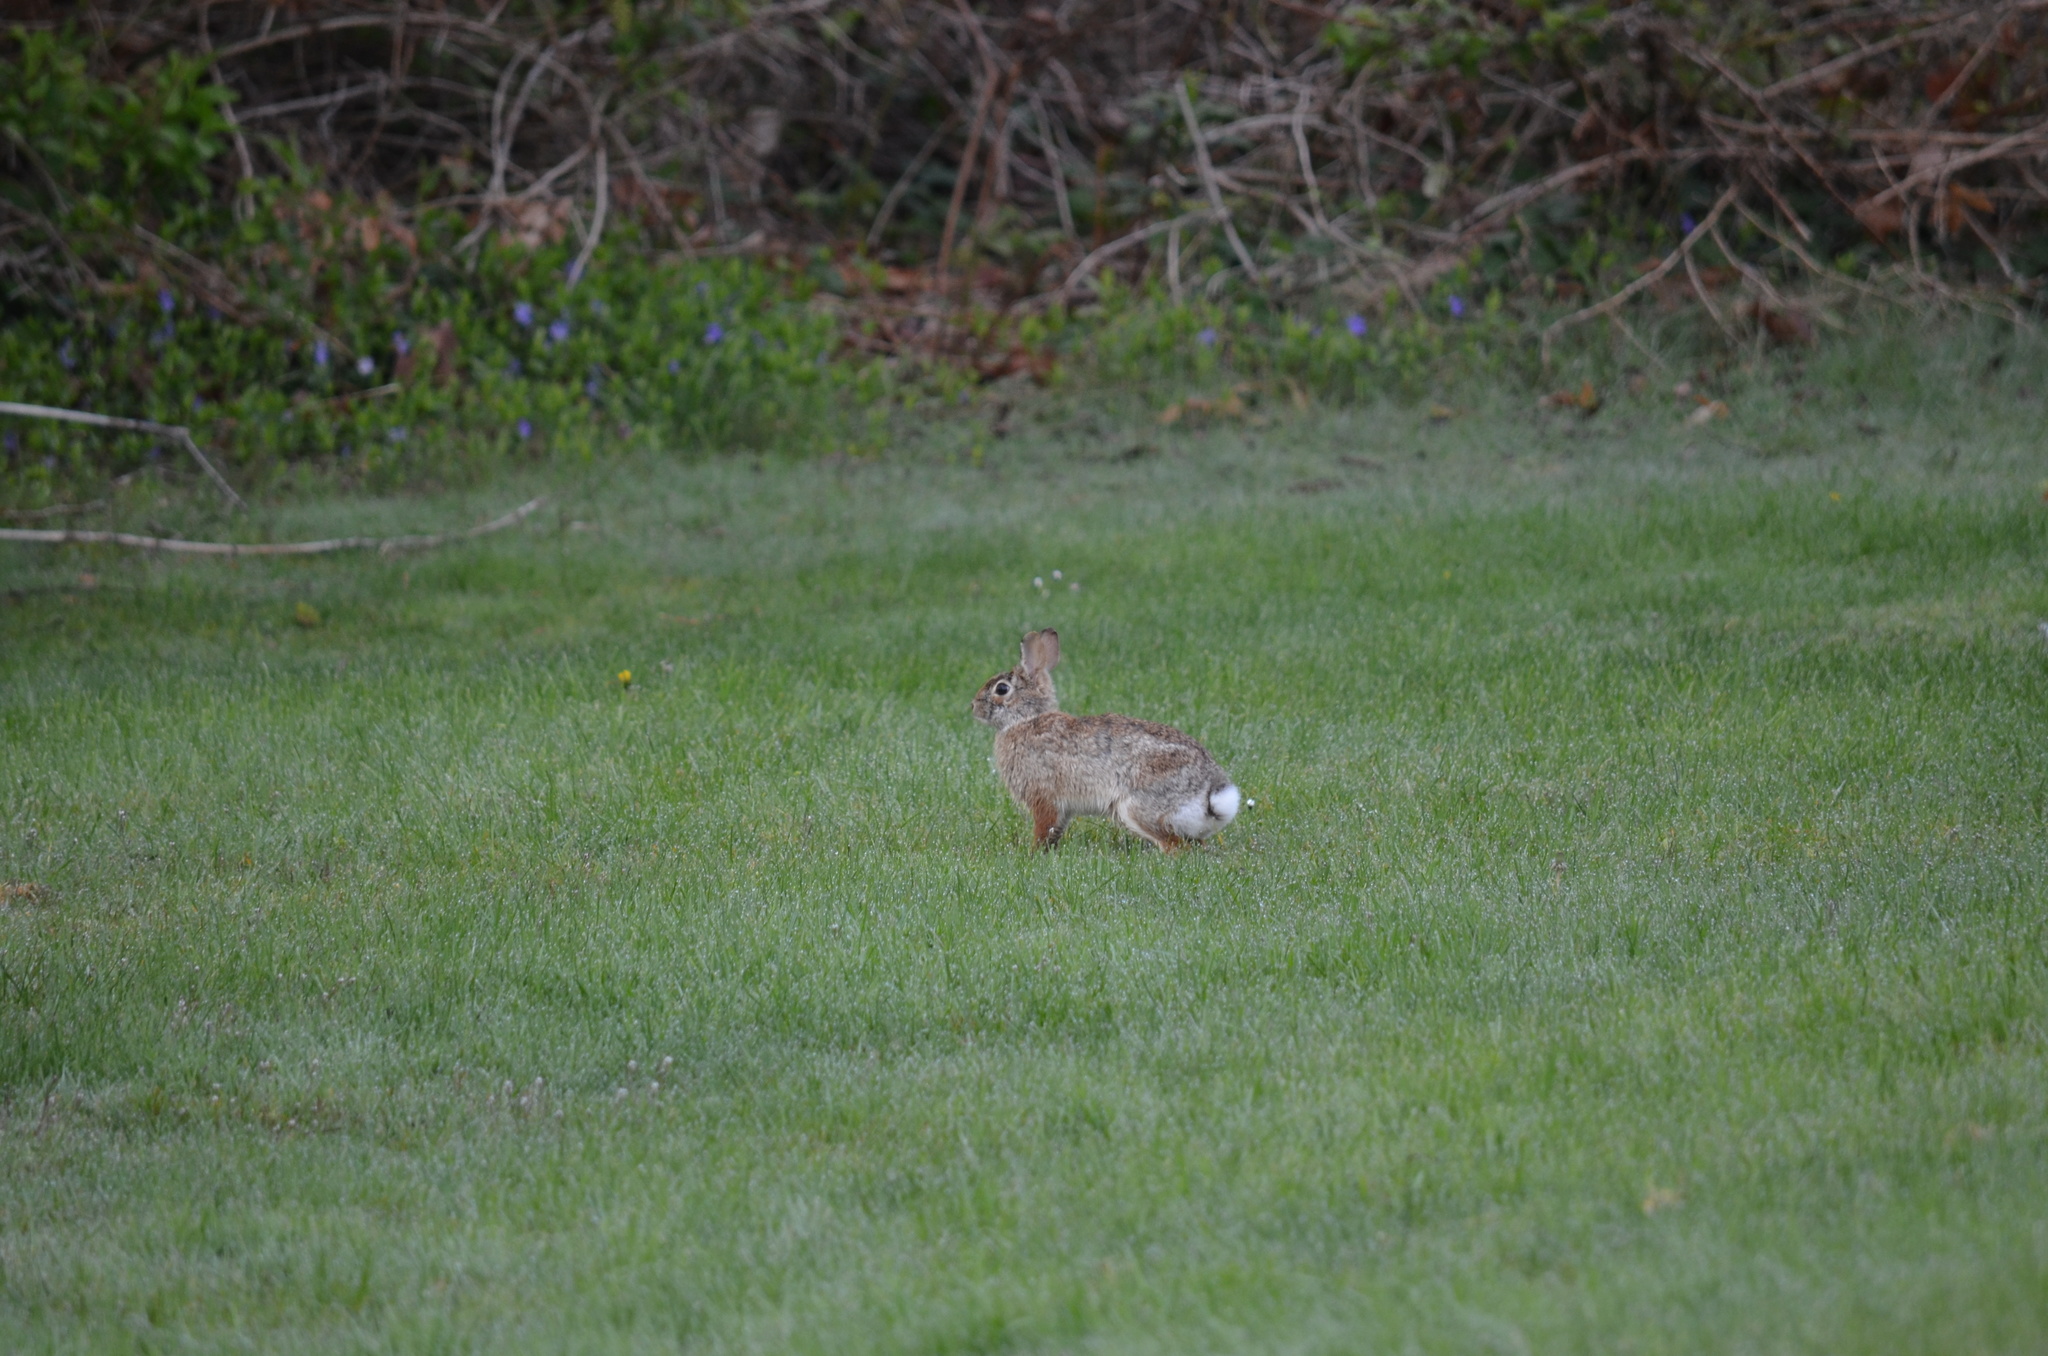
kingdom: Animalia
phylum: Chordata
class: Mammalia
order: Lagomorpha
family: Leporidae
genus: Sylvilagus
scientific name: Sylvilagus floridanus
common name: Eastern cottontail
